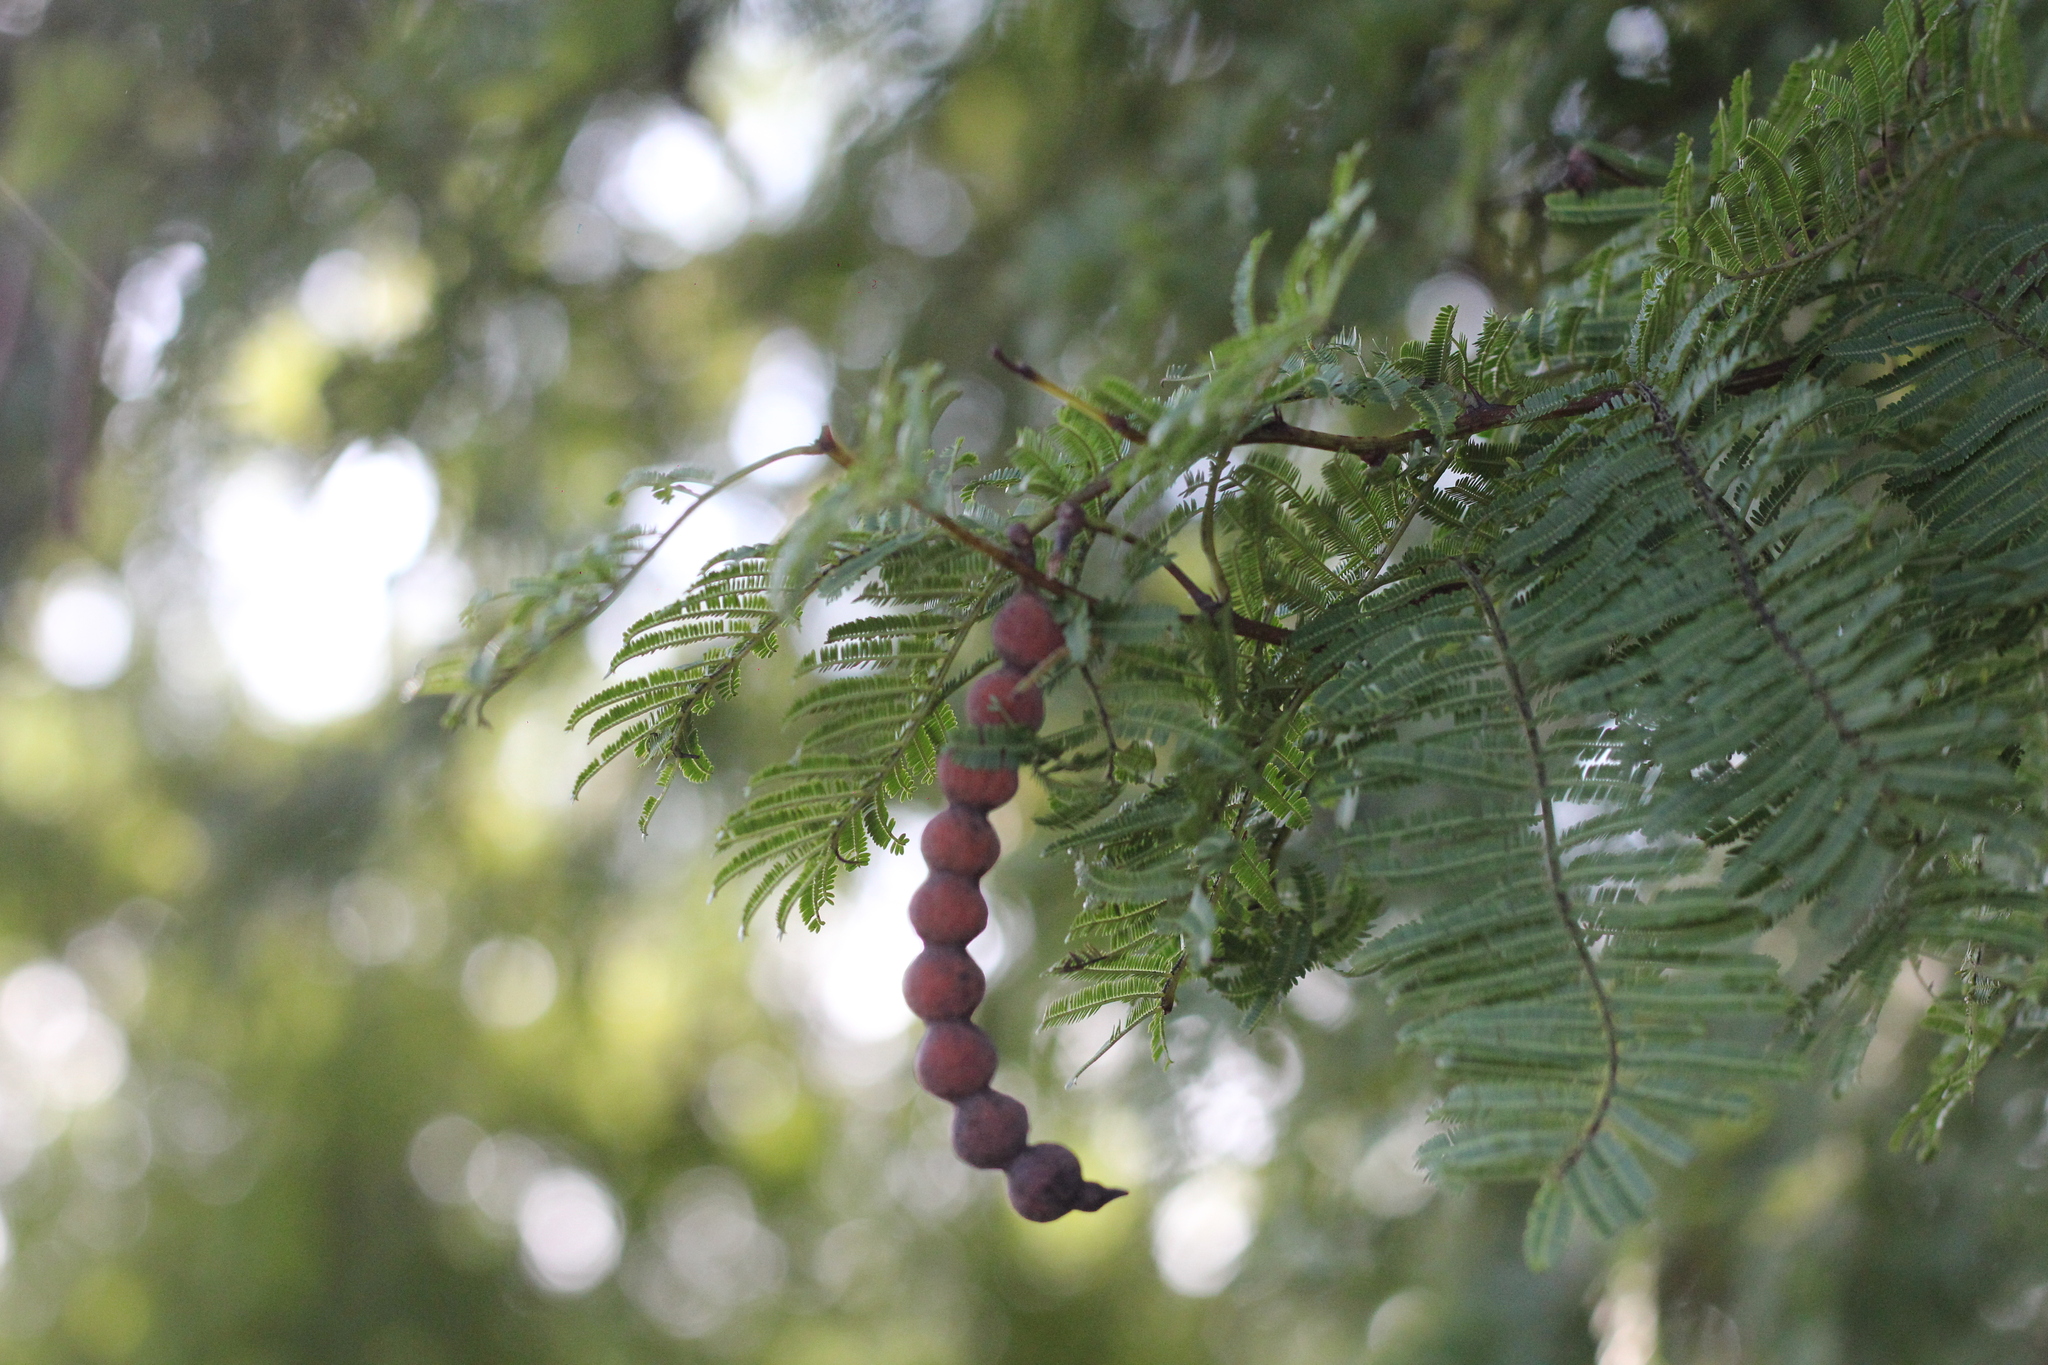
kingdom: Plantae
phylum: Tracheophyta
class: Magnoliopsida
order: Fabales
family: Fabaceae
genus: Vachellia
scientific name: Vachellia aroma
